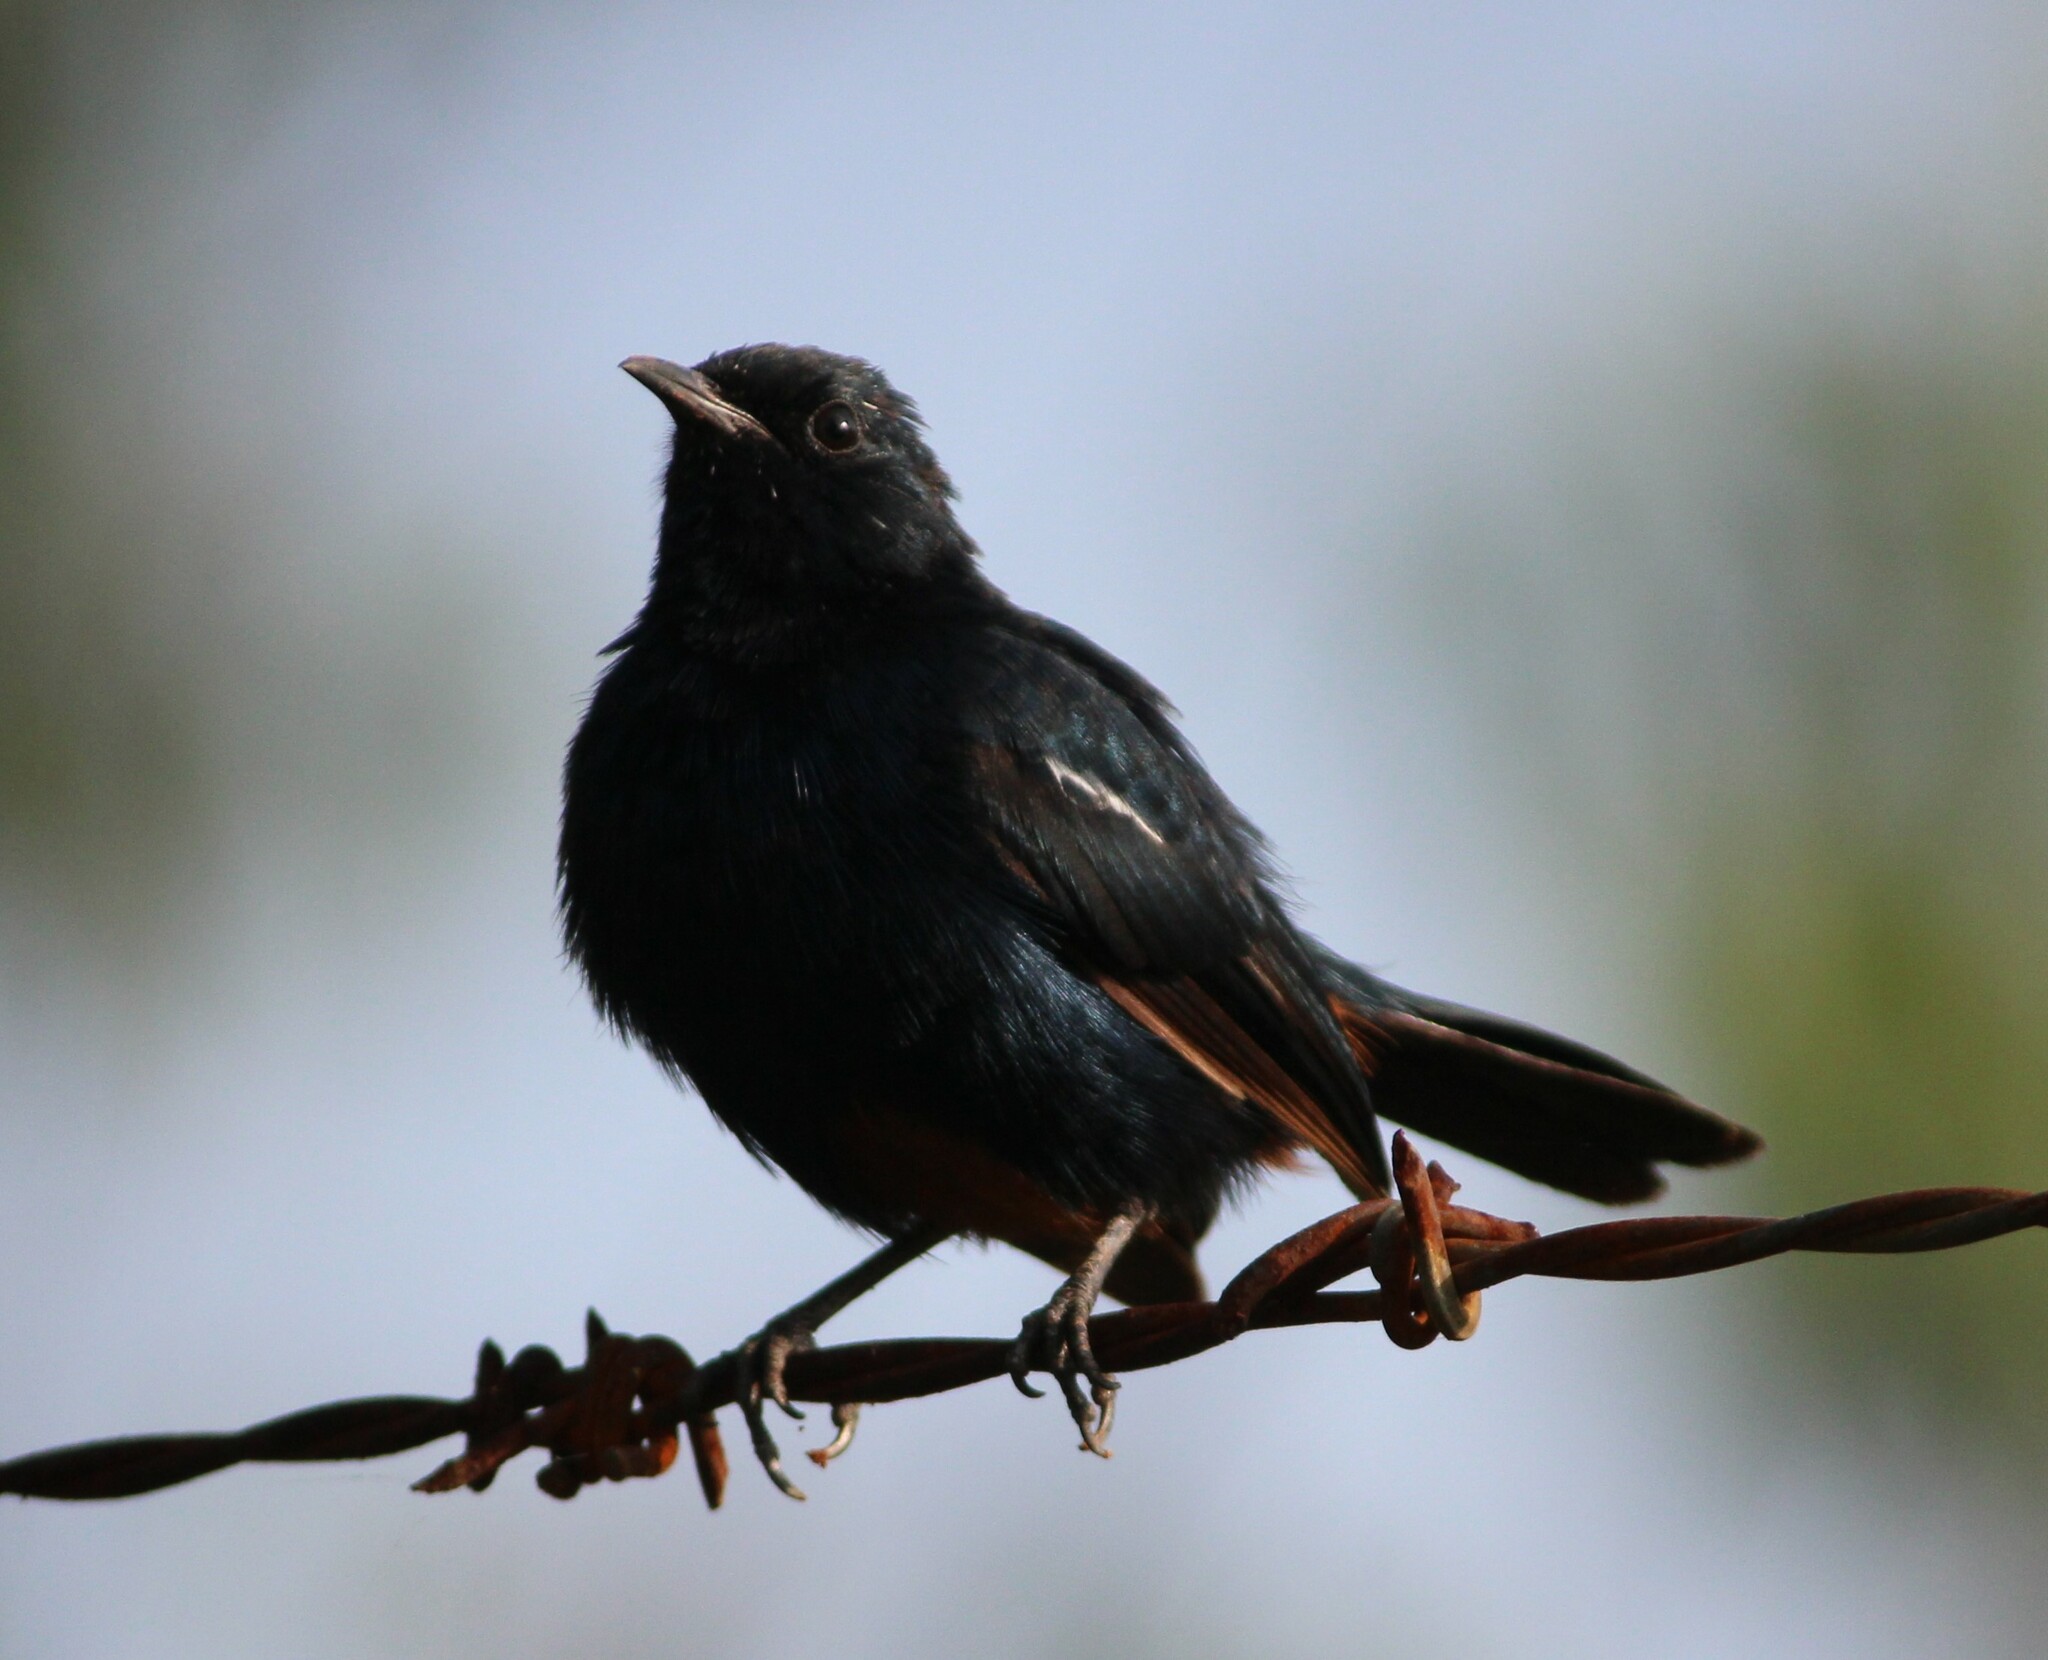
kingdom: Animalia
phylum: Chordata
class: Aves
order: Passeriformes
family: Muscicapidae
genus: Saxicoloides
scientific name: Saxicoloides fulicatus
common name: Indian robin
